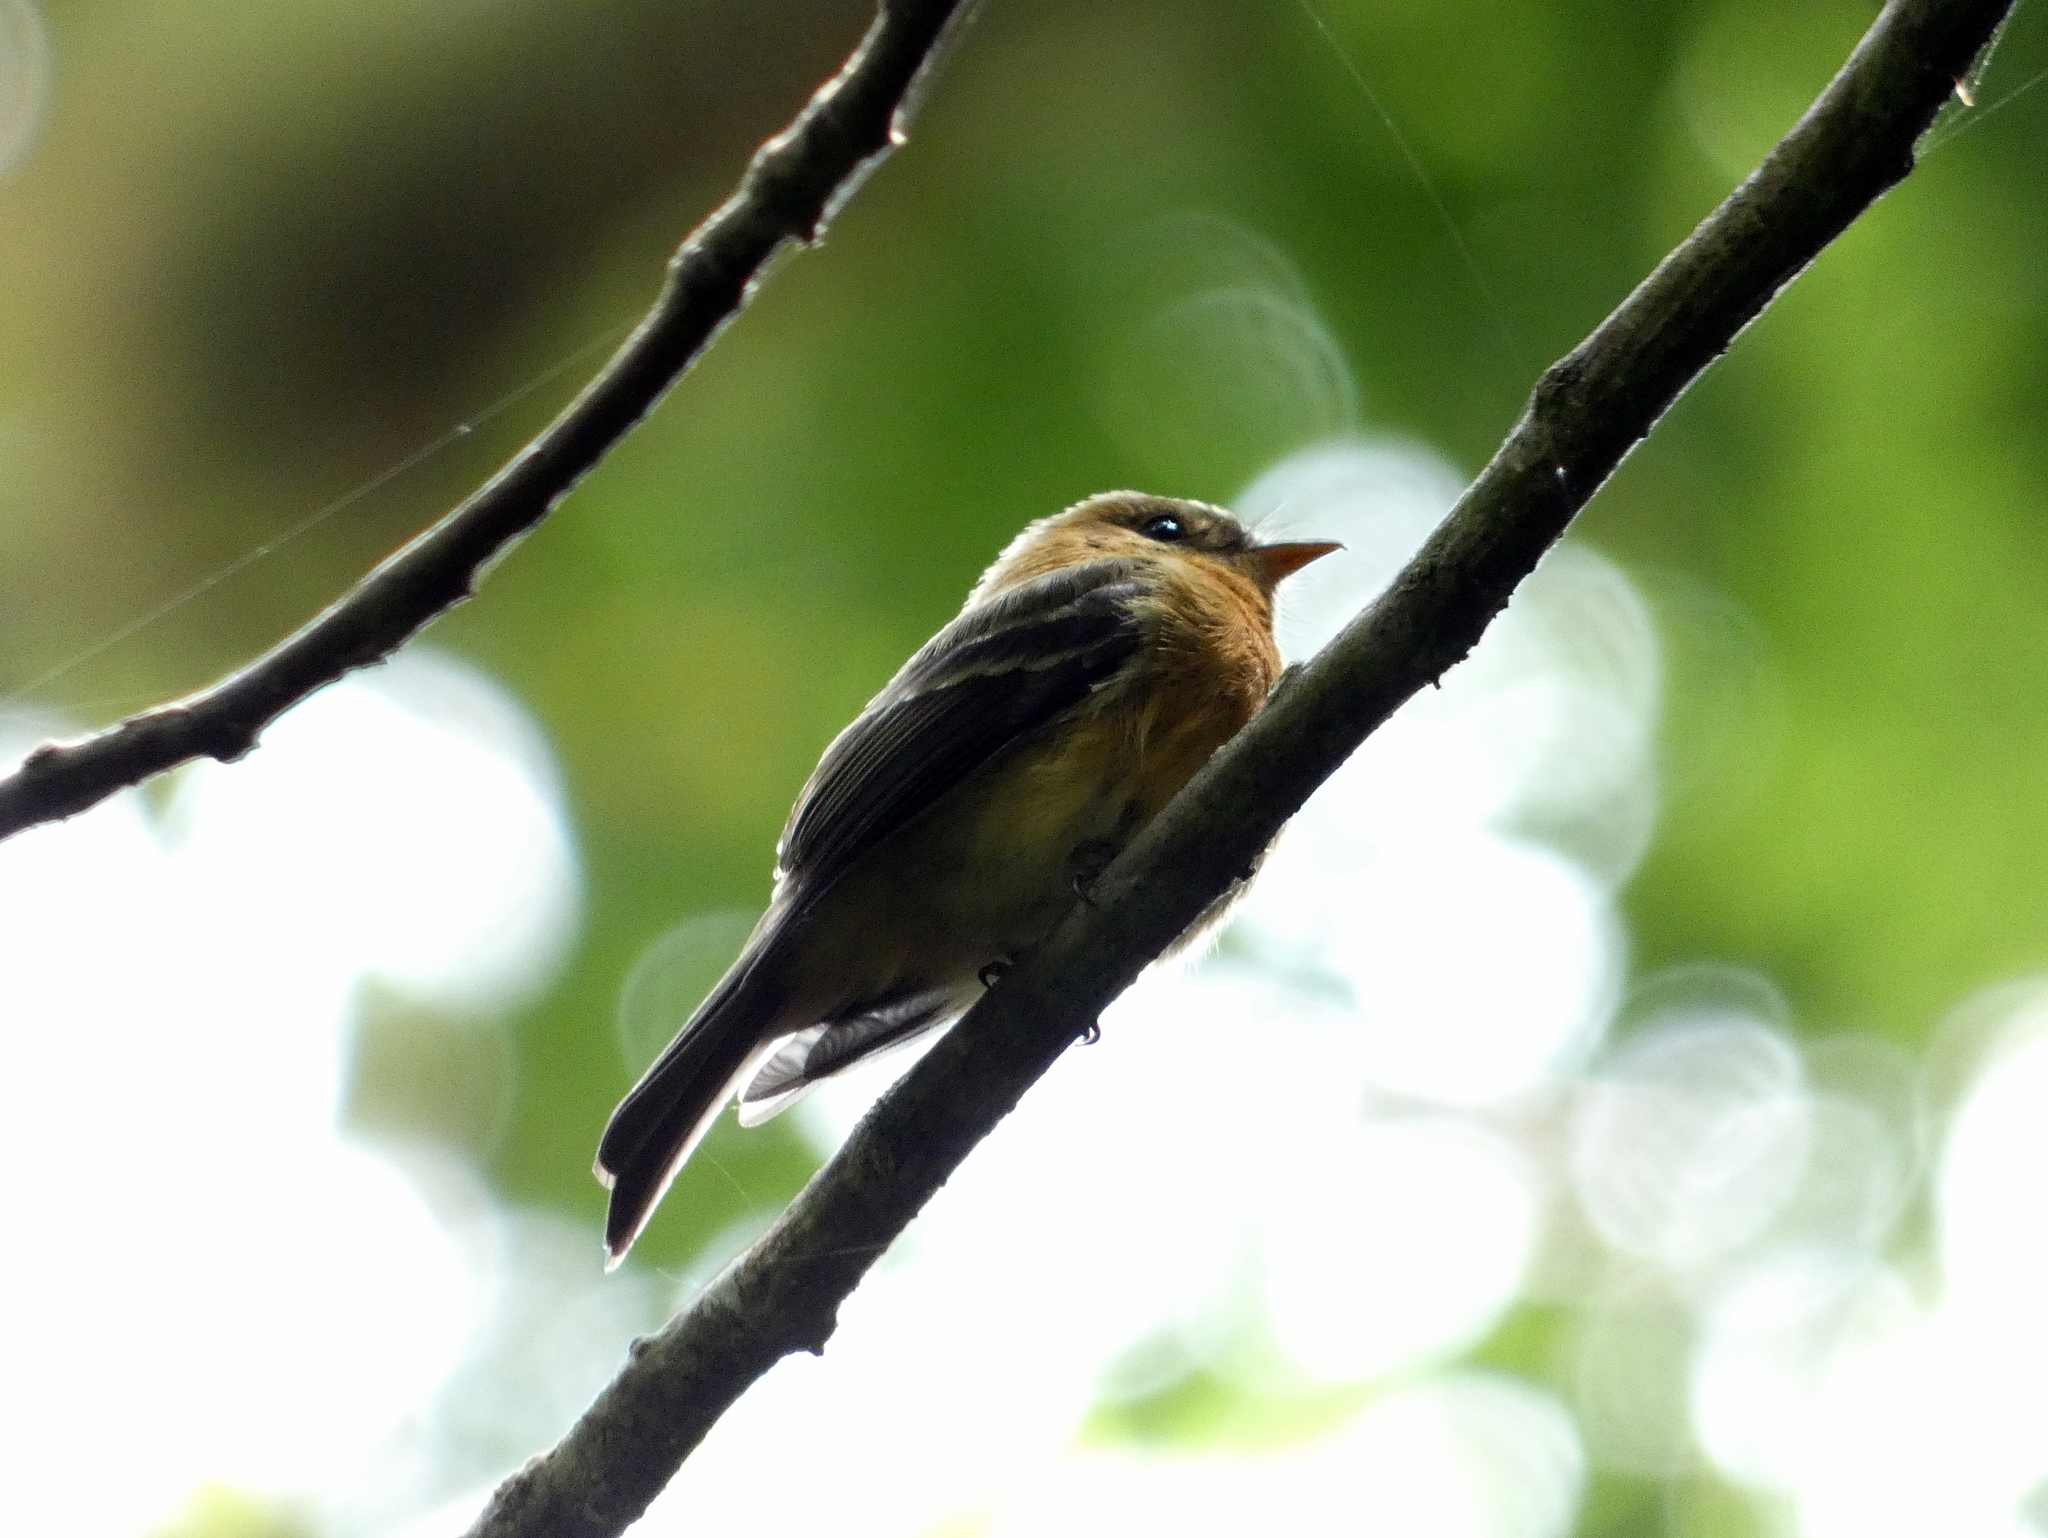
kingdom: Animalia
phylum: Chordata
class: Aves
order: Passeriformes
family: Tyrannidae
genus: Mitrephanes
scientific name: Mitrephanes phaeocercus
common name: Northern tufted flycatcher
